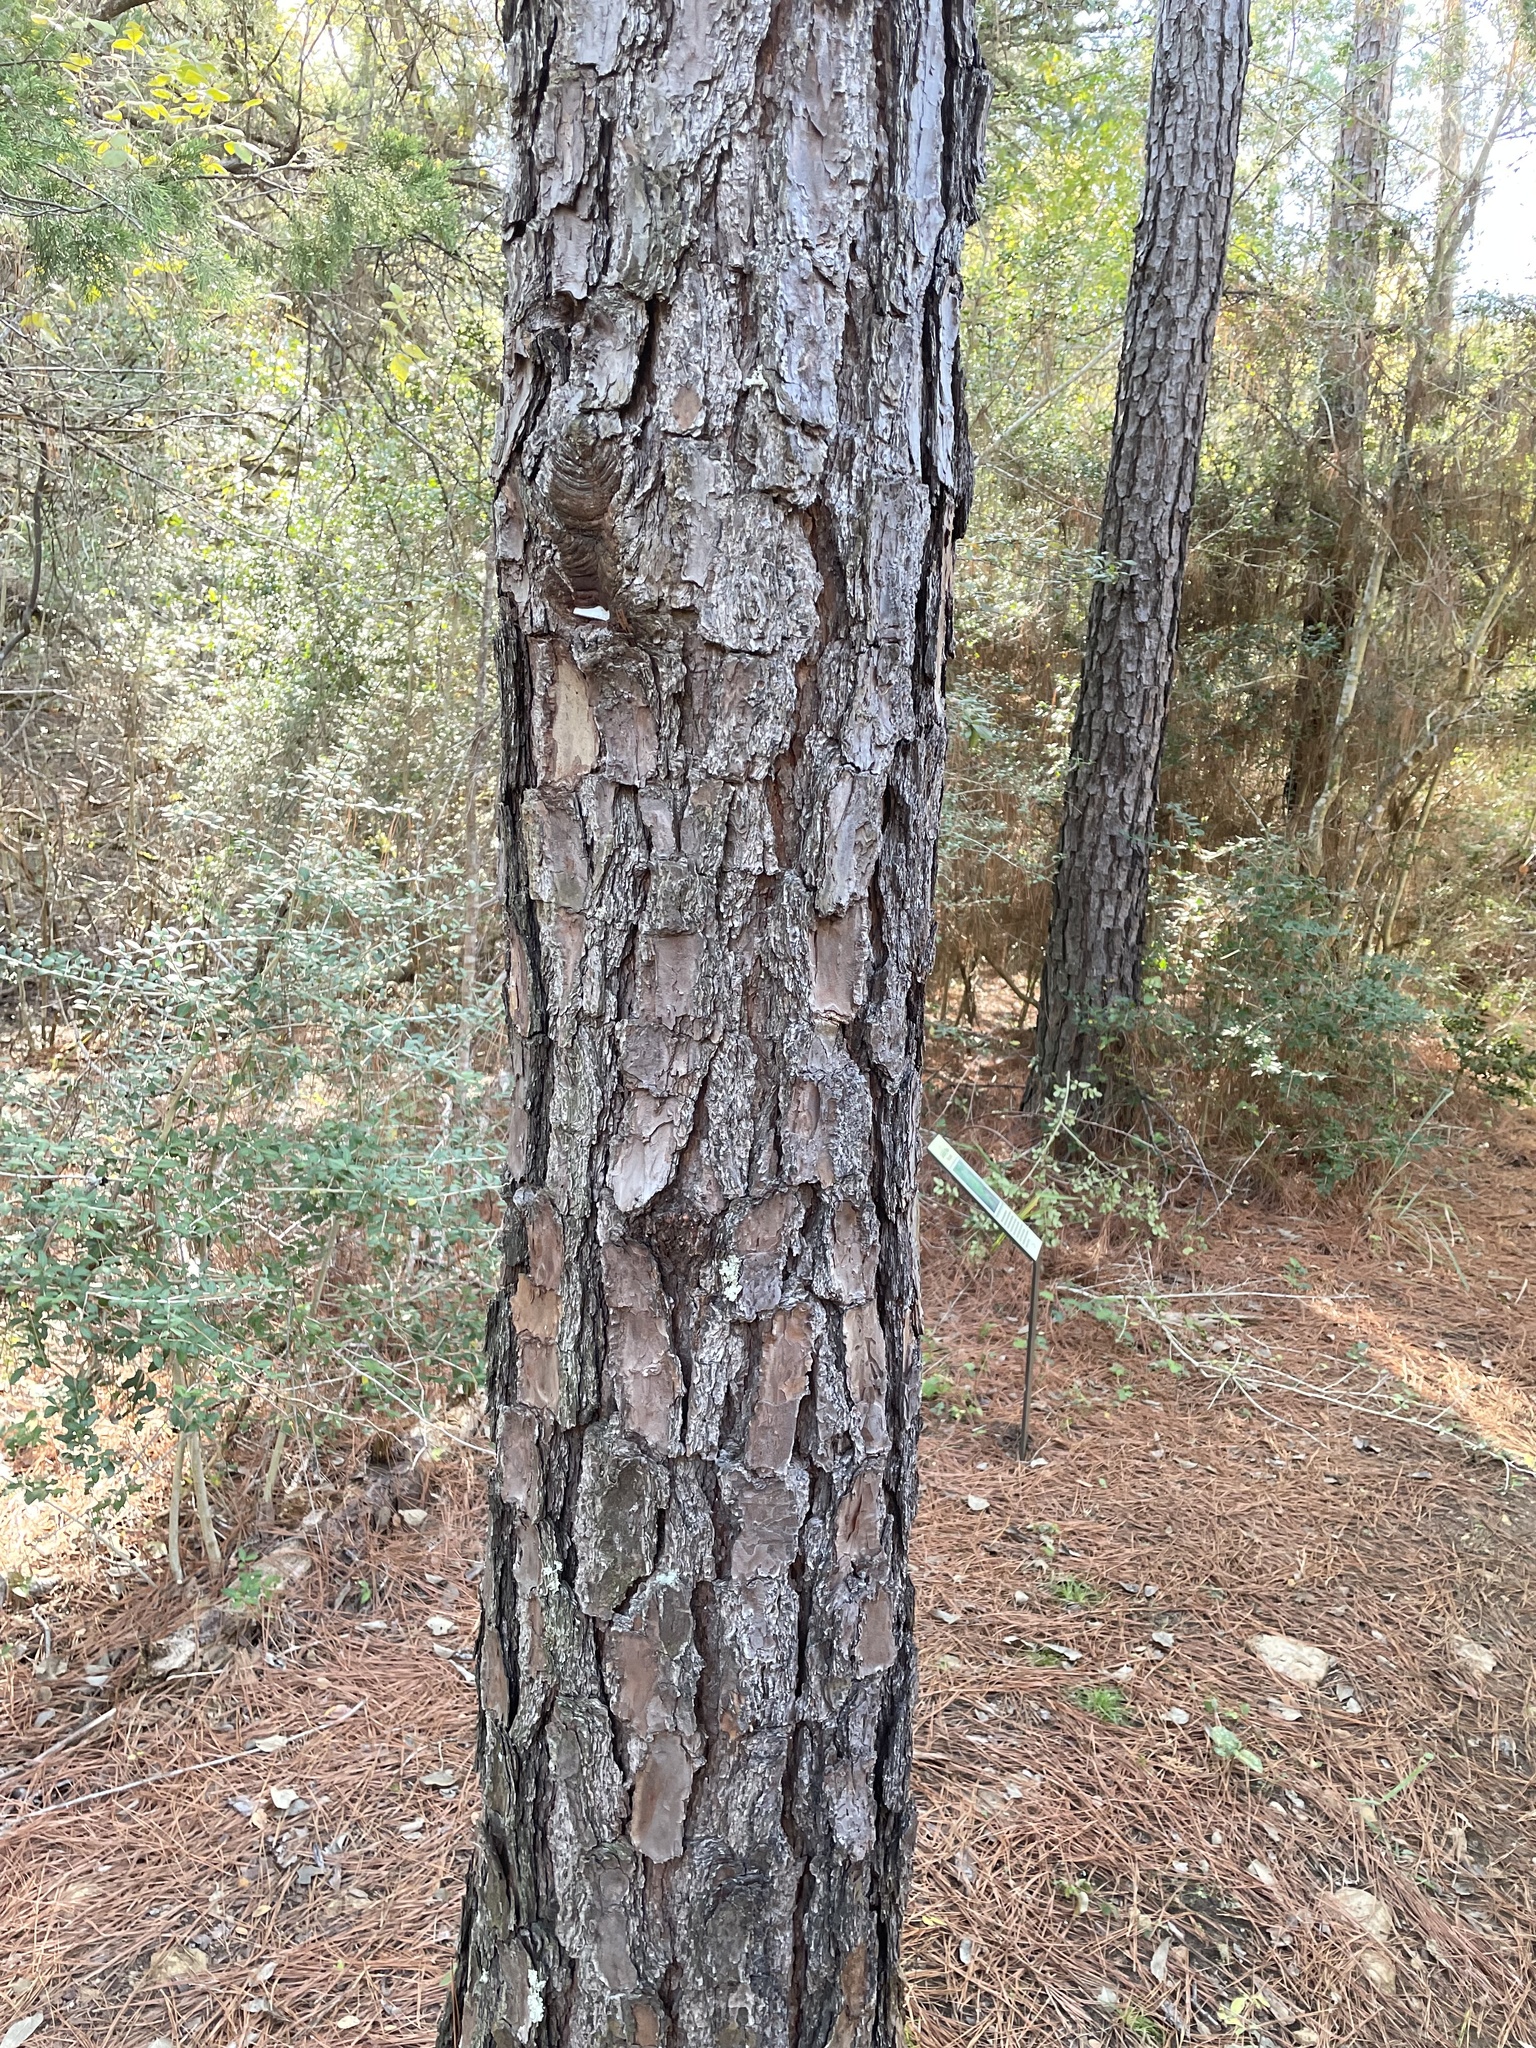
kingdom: Plantae
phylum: Tracheophyta
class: Pinopsida
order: Pinales
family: Pinaceae
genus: Pinus
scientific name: Pinus taeda
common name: Loblolly pine
